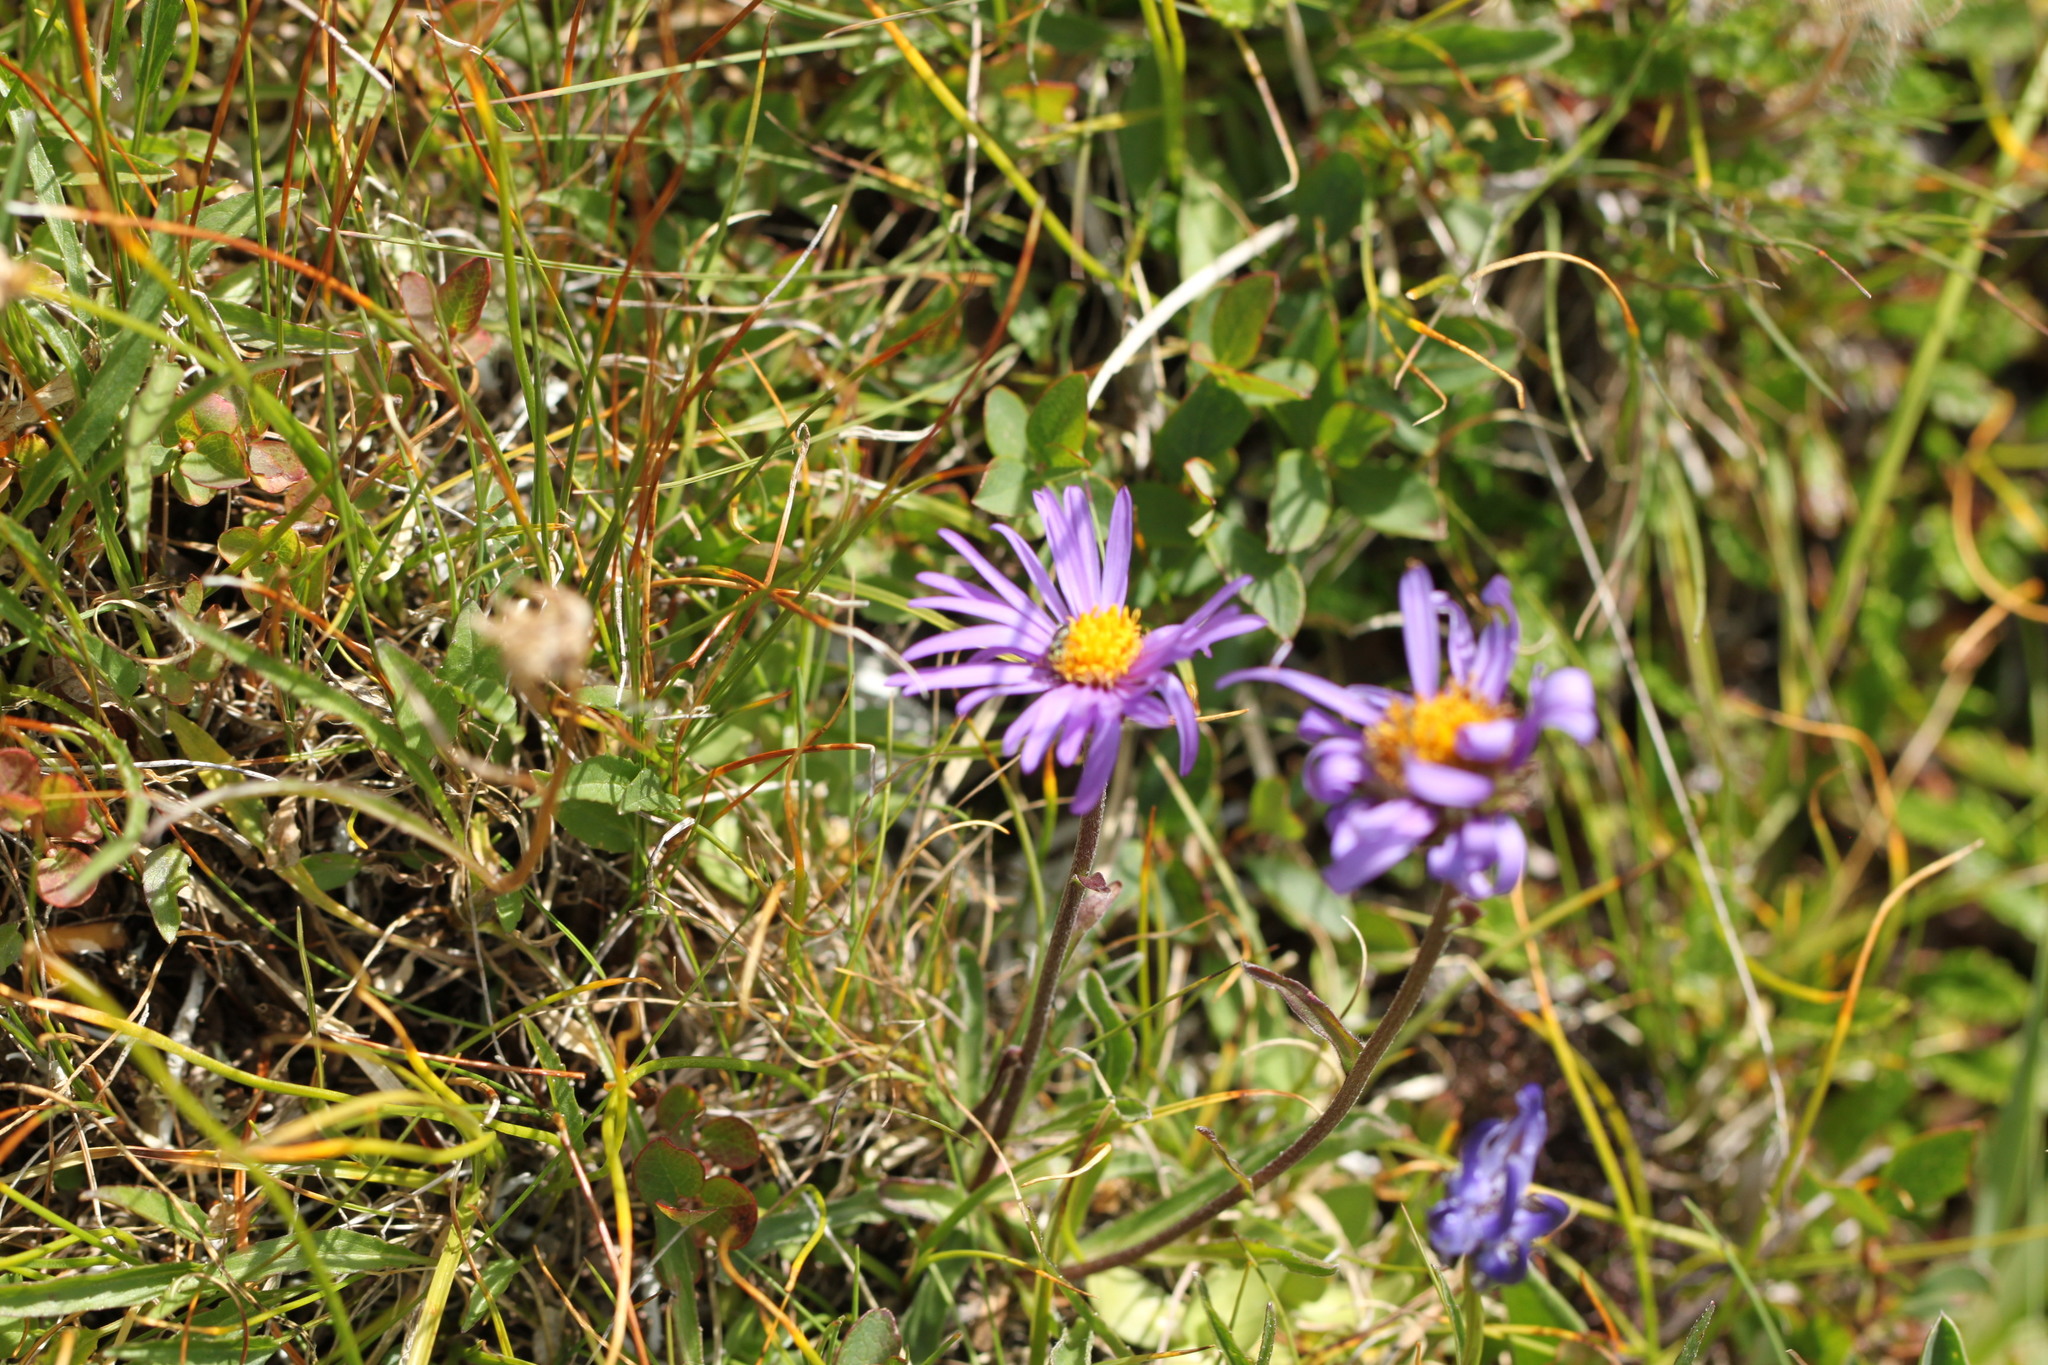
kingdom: Plantae
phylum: Tracheophyta
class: Magnoliopsida
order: Asterales
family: Asteraceae
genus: Aster
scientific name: Aster alpinus
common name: Alpine aster
